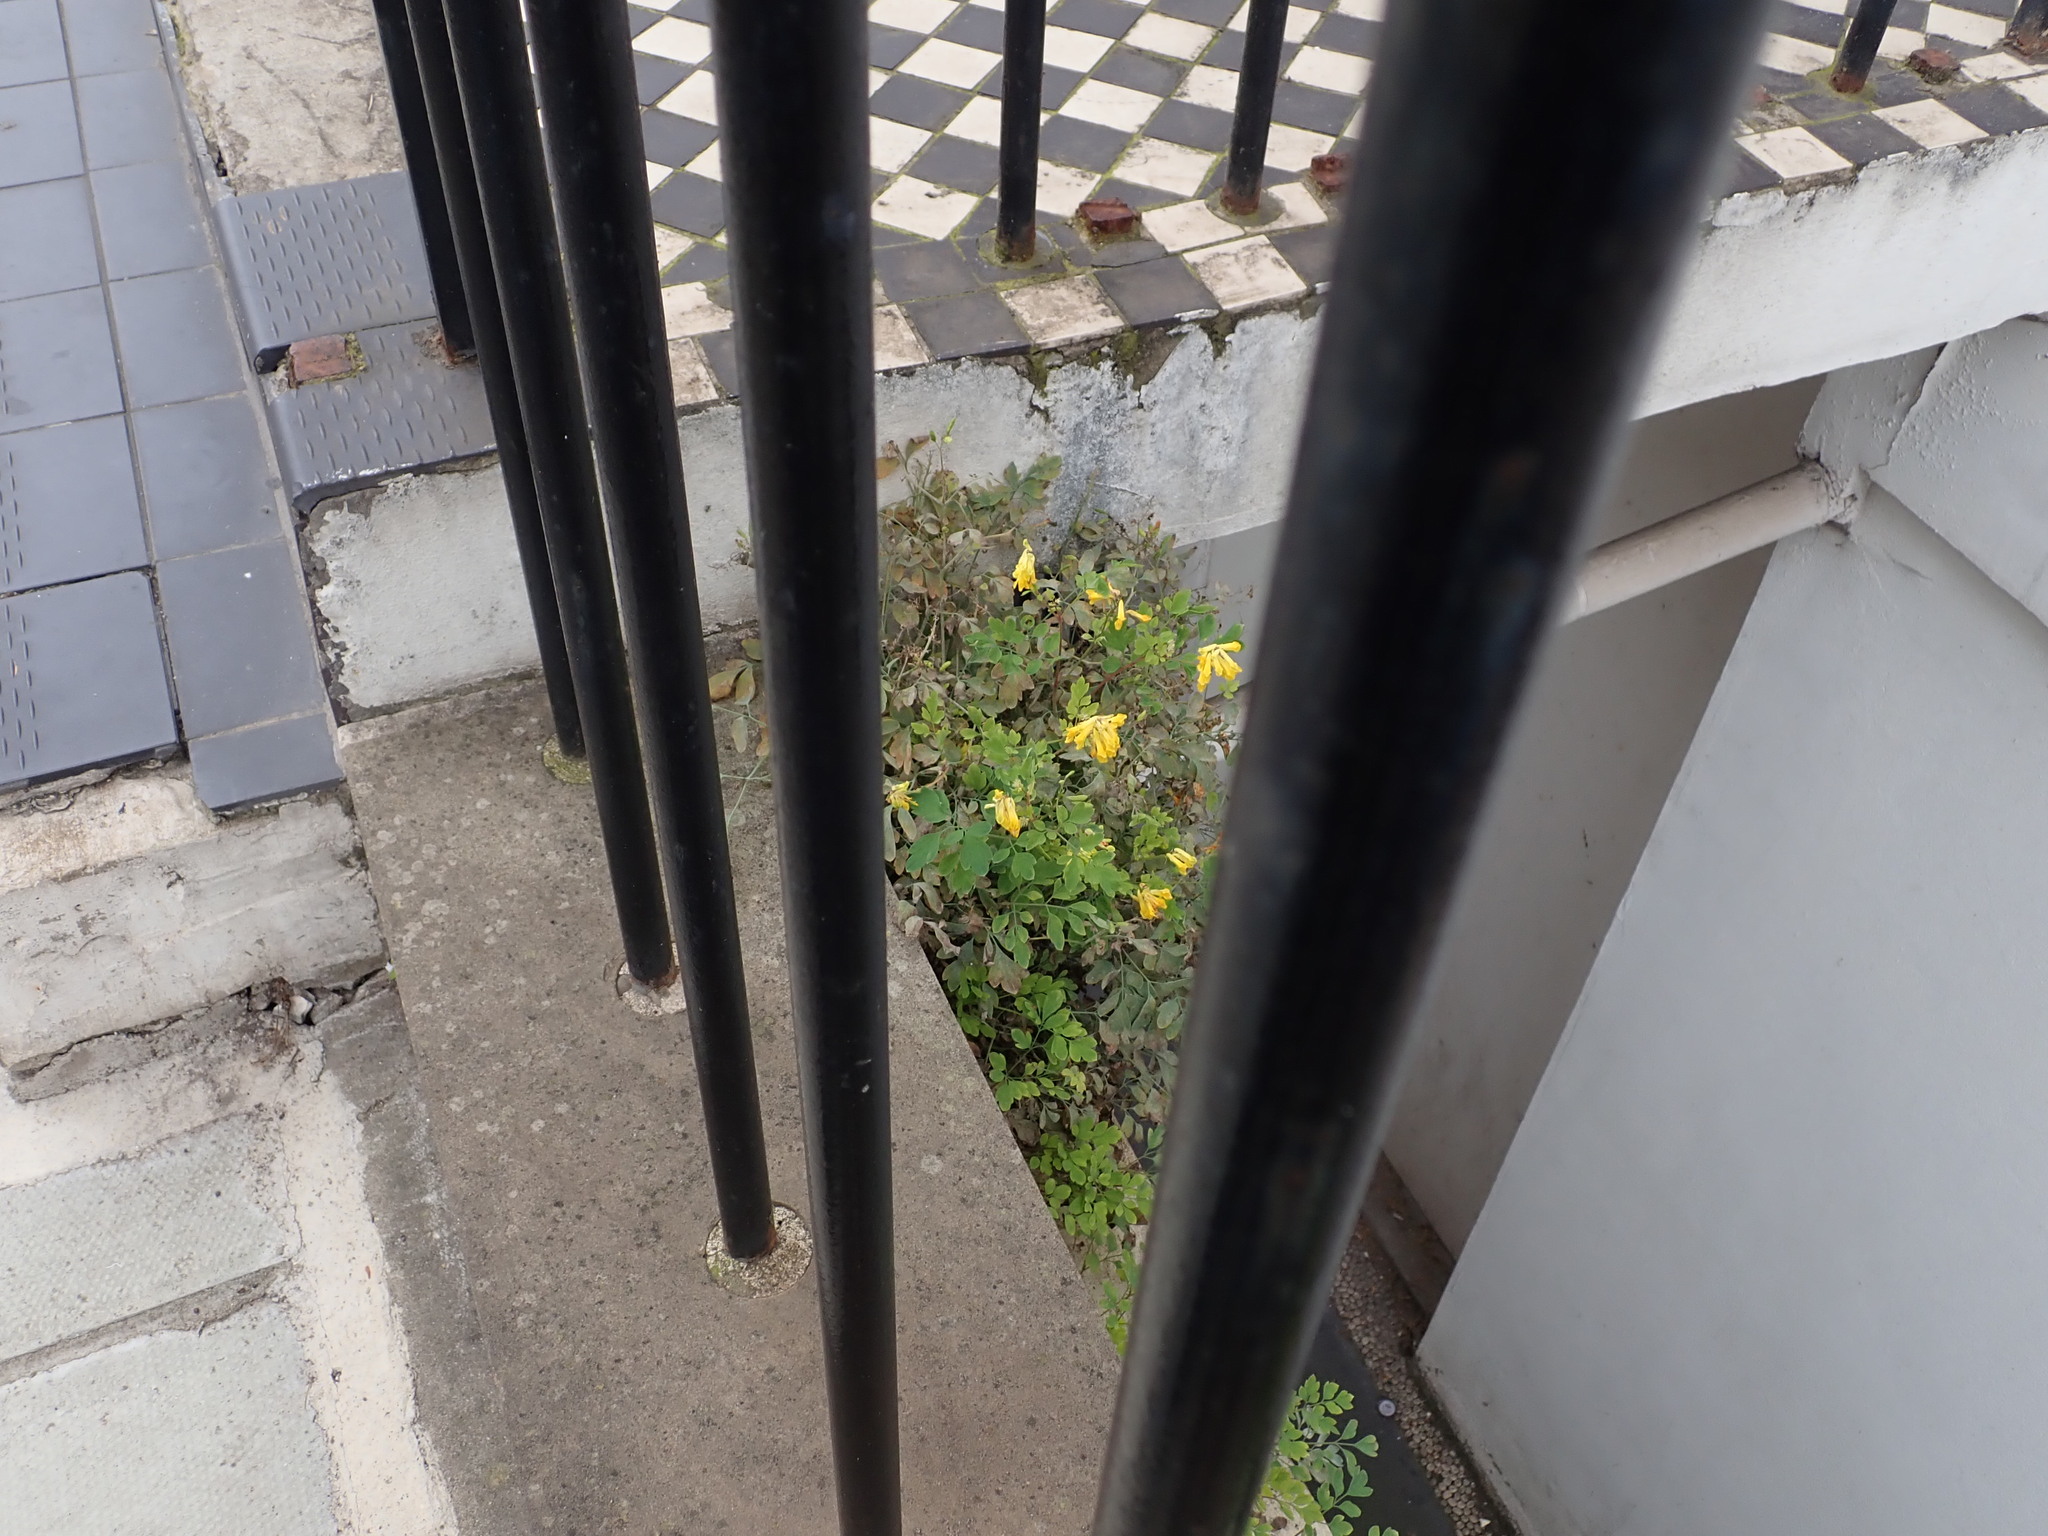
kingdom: Plantae
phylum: Tracheophyta
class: Magnoliopsida
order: Ranunculales
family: Papaveraceae
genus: Pseudofumaria
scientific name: Pseudofumaria lutea
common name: Yellow corydalis
